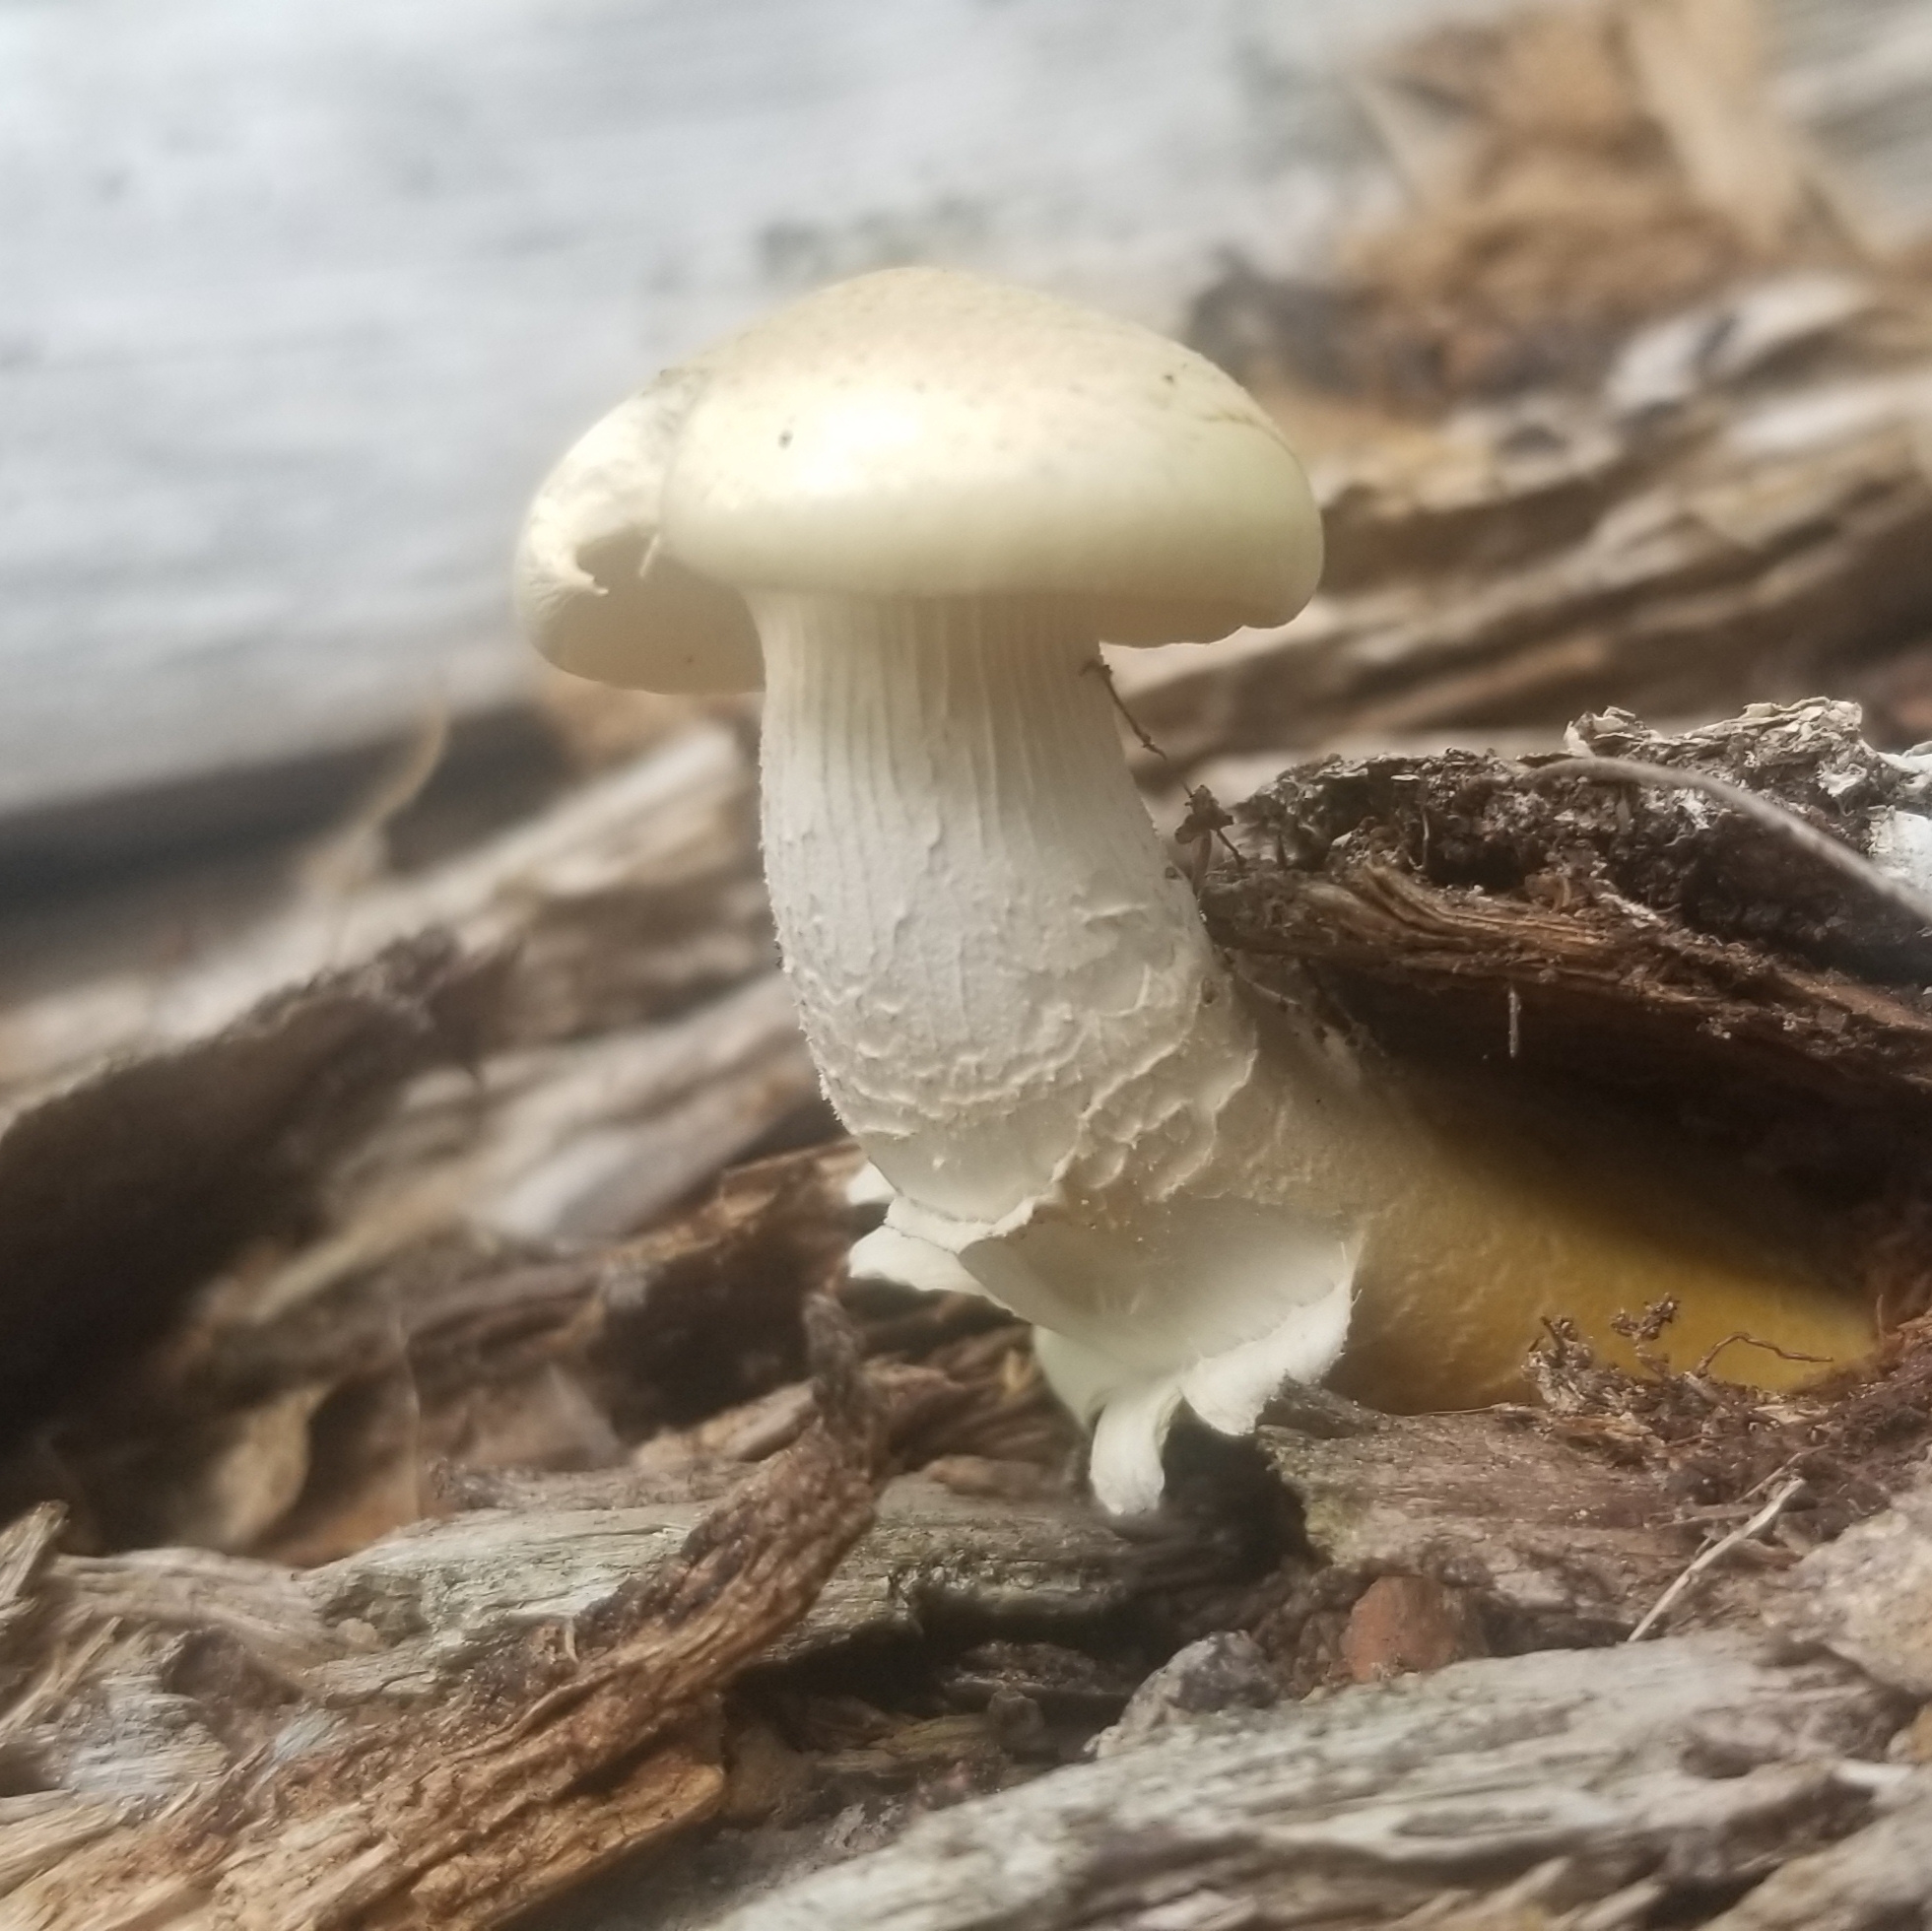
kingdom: Fungi
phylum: Basidiomycota
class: Agaricomycetes
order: Gloeophyllales
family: Gloeophyllaceae
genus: Neolentinus
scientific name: Neolentinus lepideus
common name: Scaly sawgill
